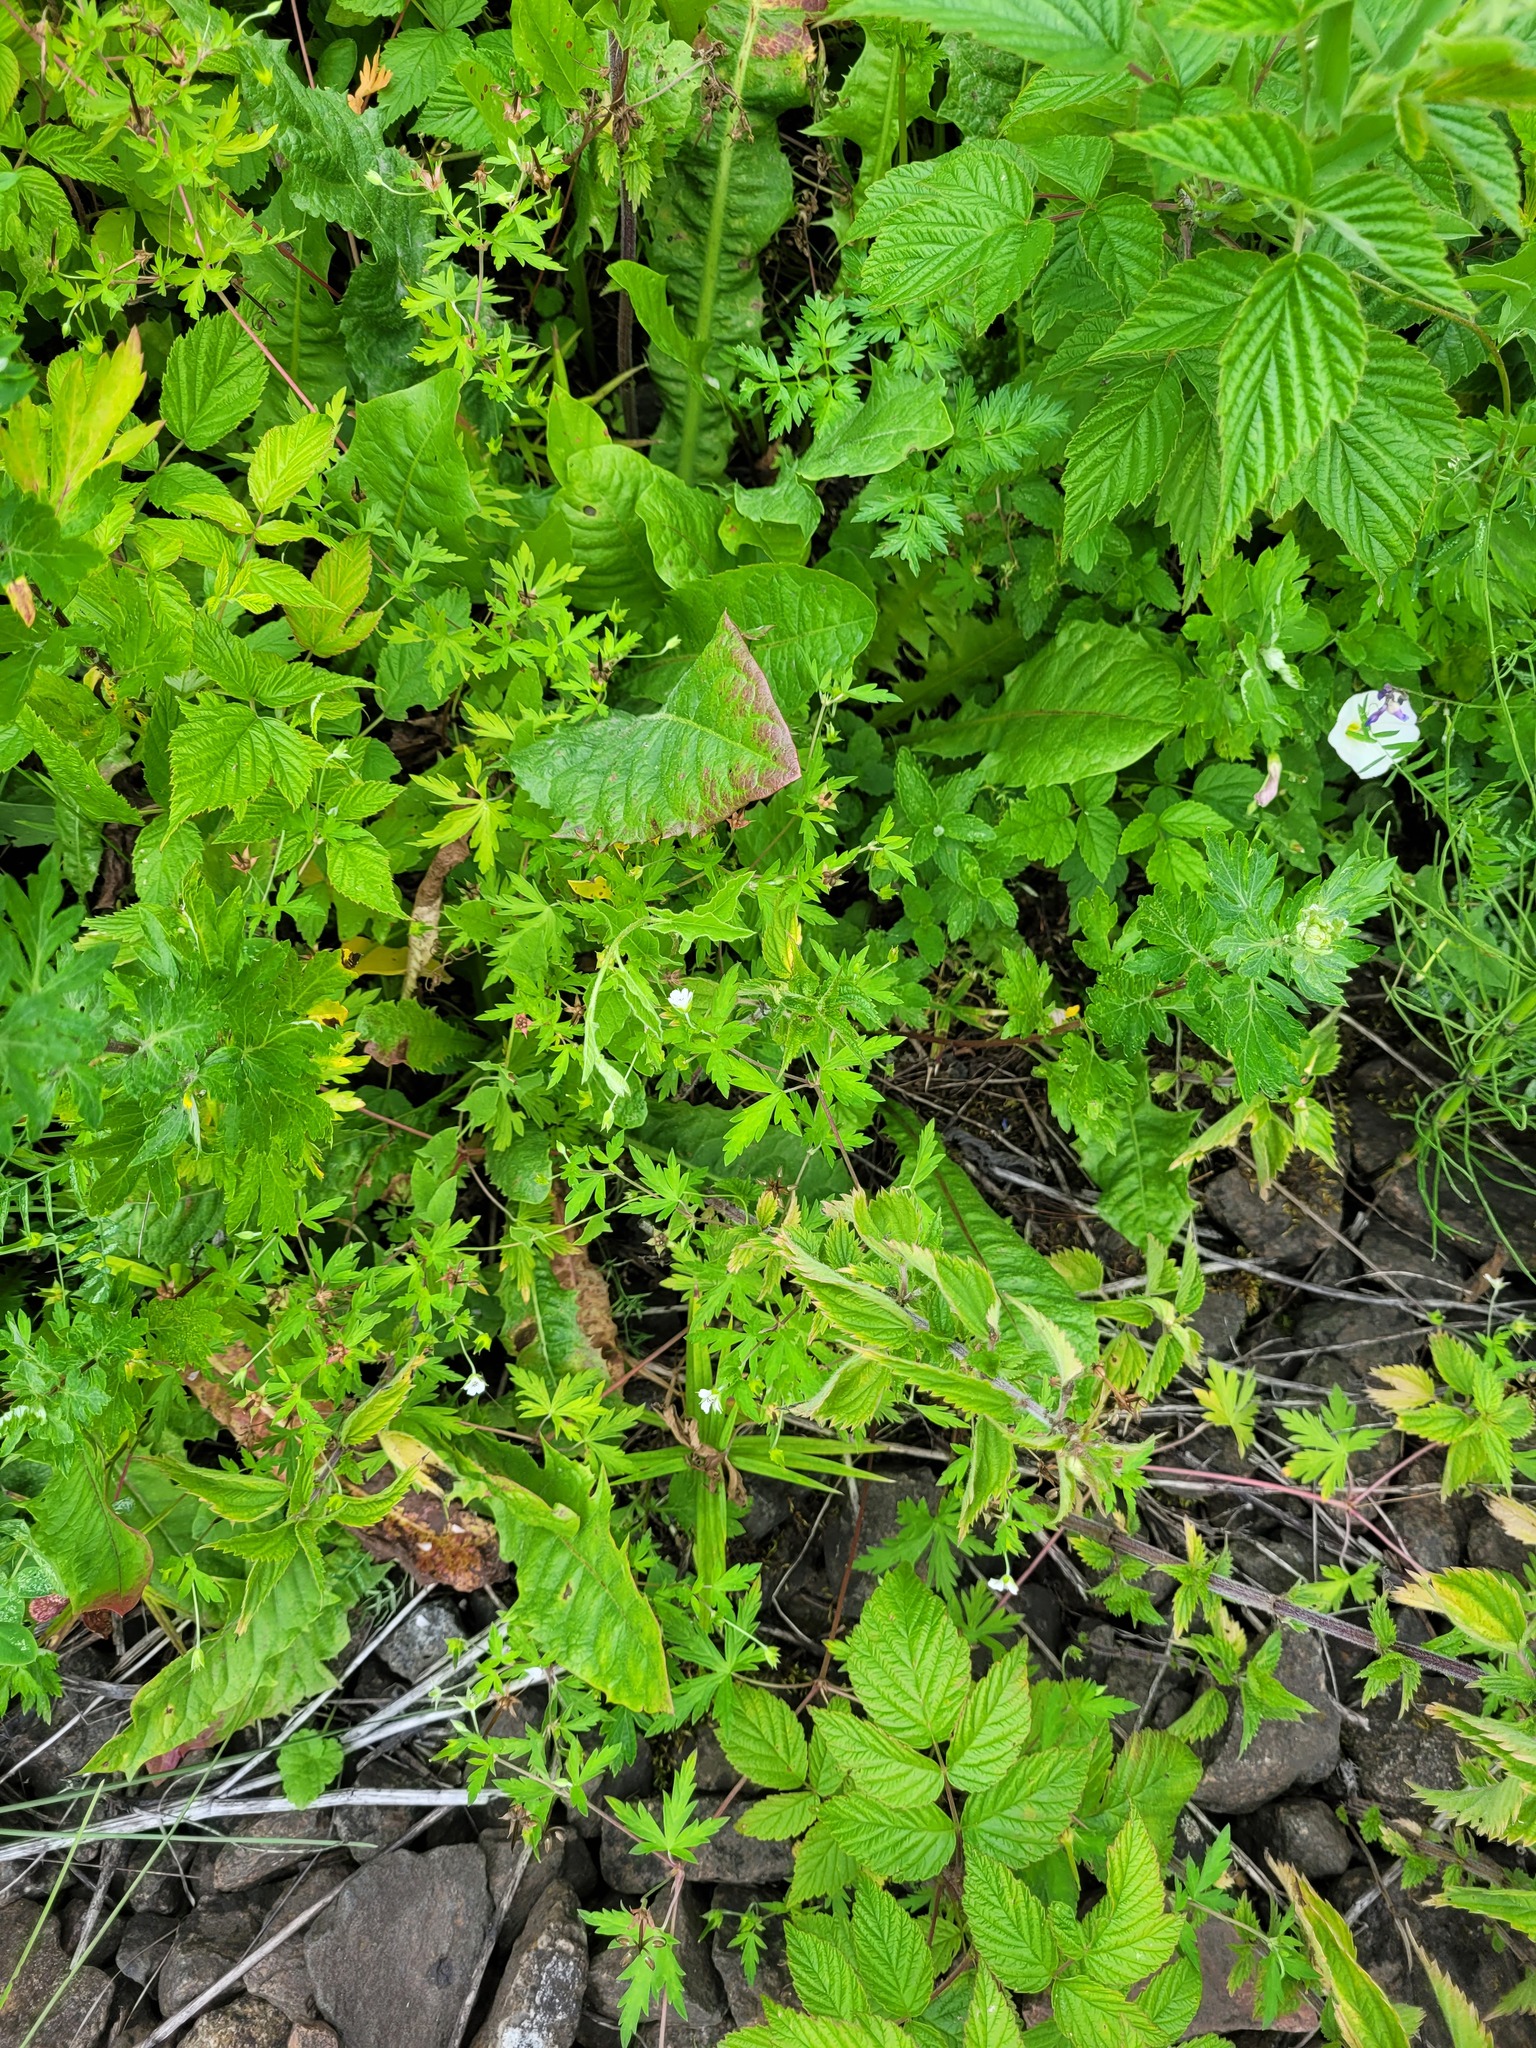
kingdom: Plantae
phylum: Tracheophyta
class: Magnoliopsida
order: Geraniales
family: Geraniaceae
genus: Geranium
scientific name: Geranium sibiricum
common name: Siberian crane's-bill
